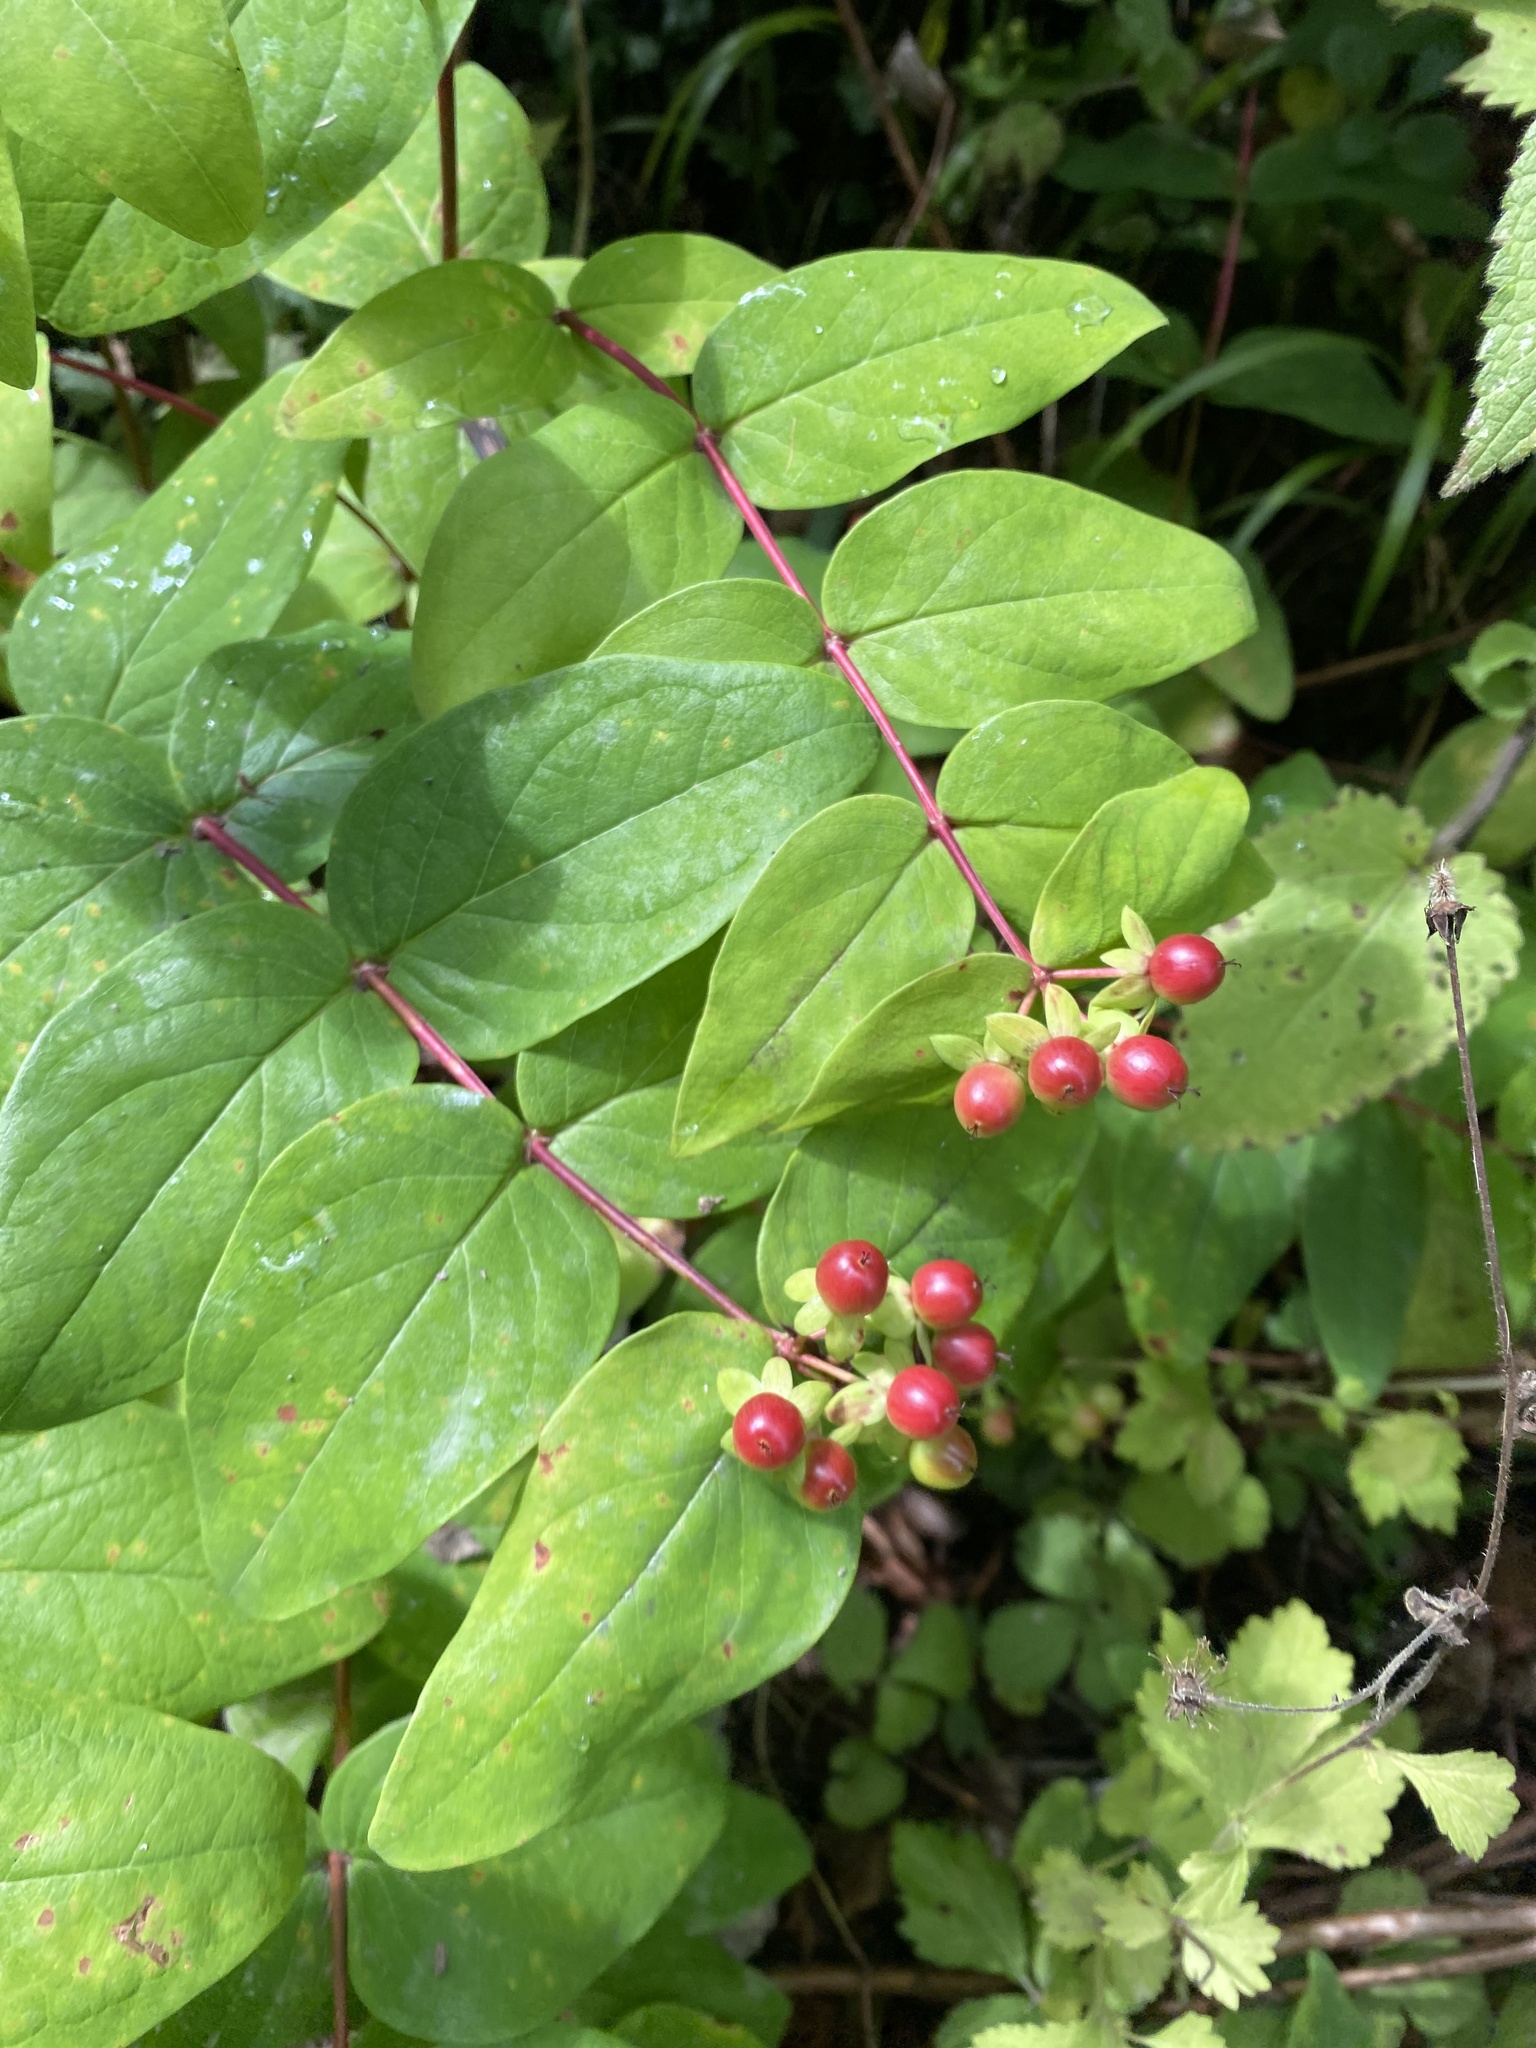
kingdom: Plantae
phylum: Tracheophyta
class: Magnoliopsida
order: Malpighiales
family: Hypericaceae
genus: Hypericum
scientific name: Hypericum androsaemum
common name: Sweet-amber
